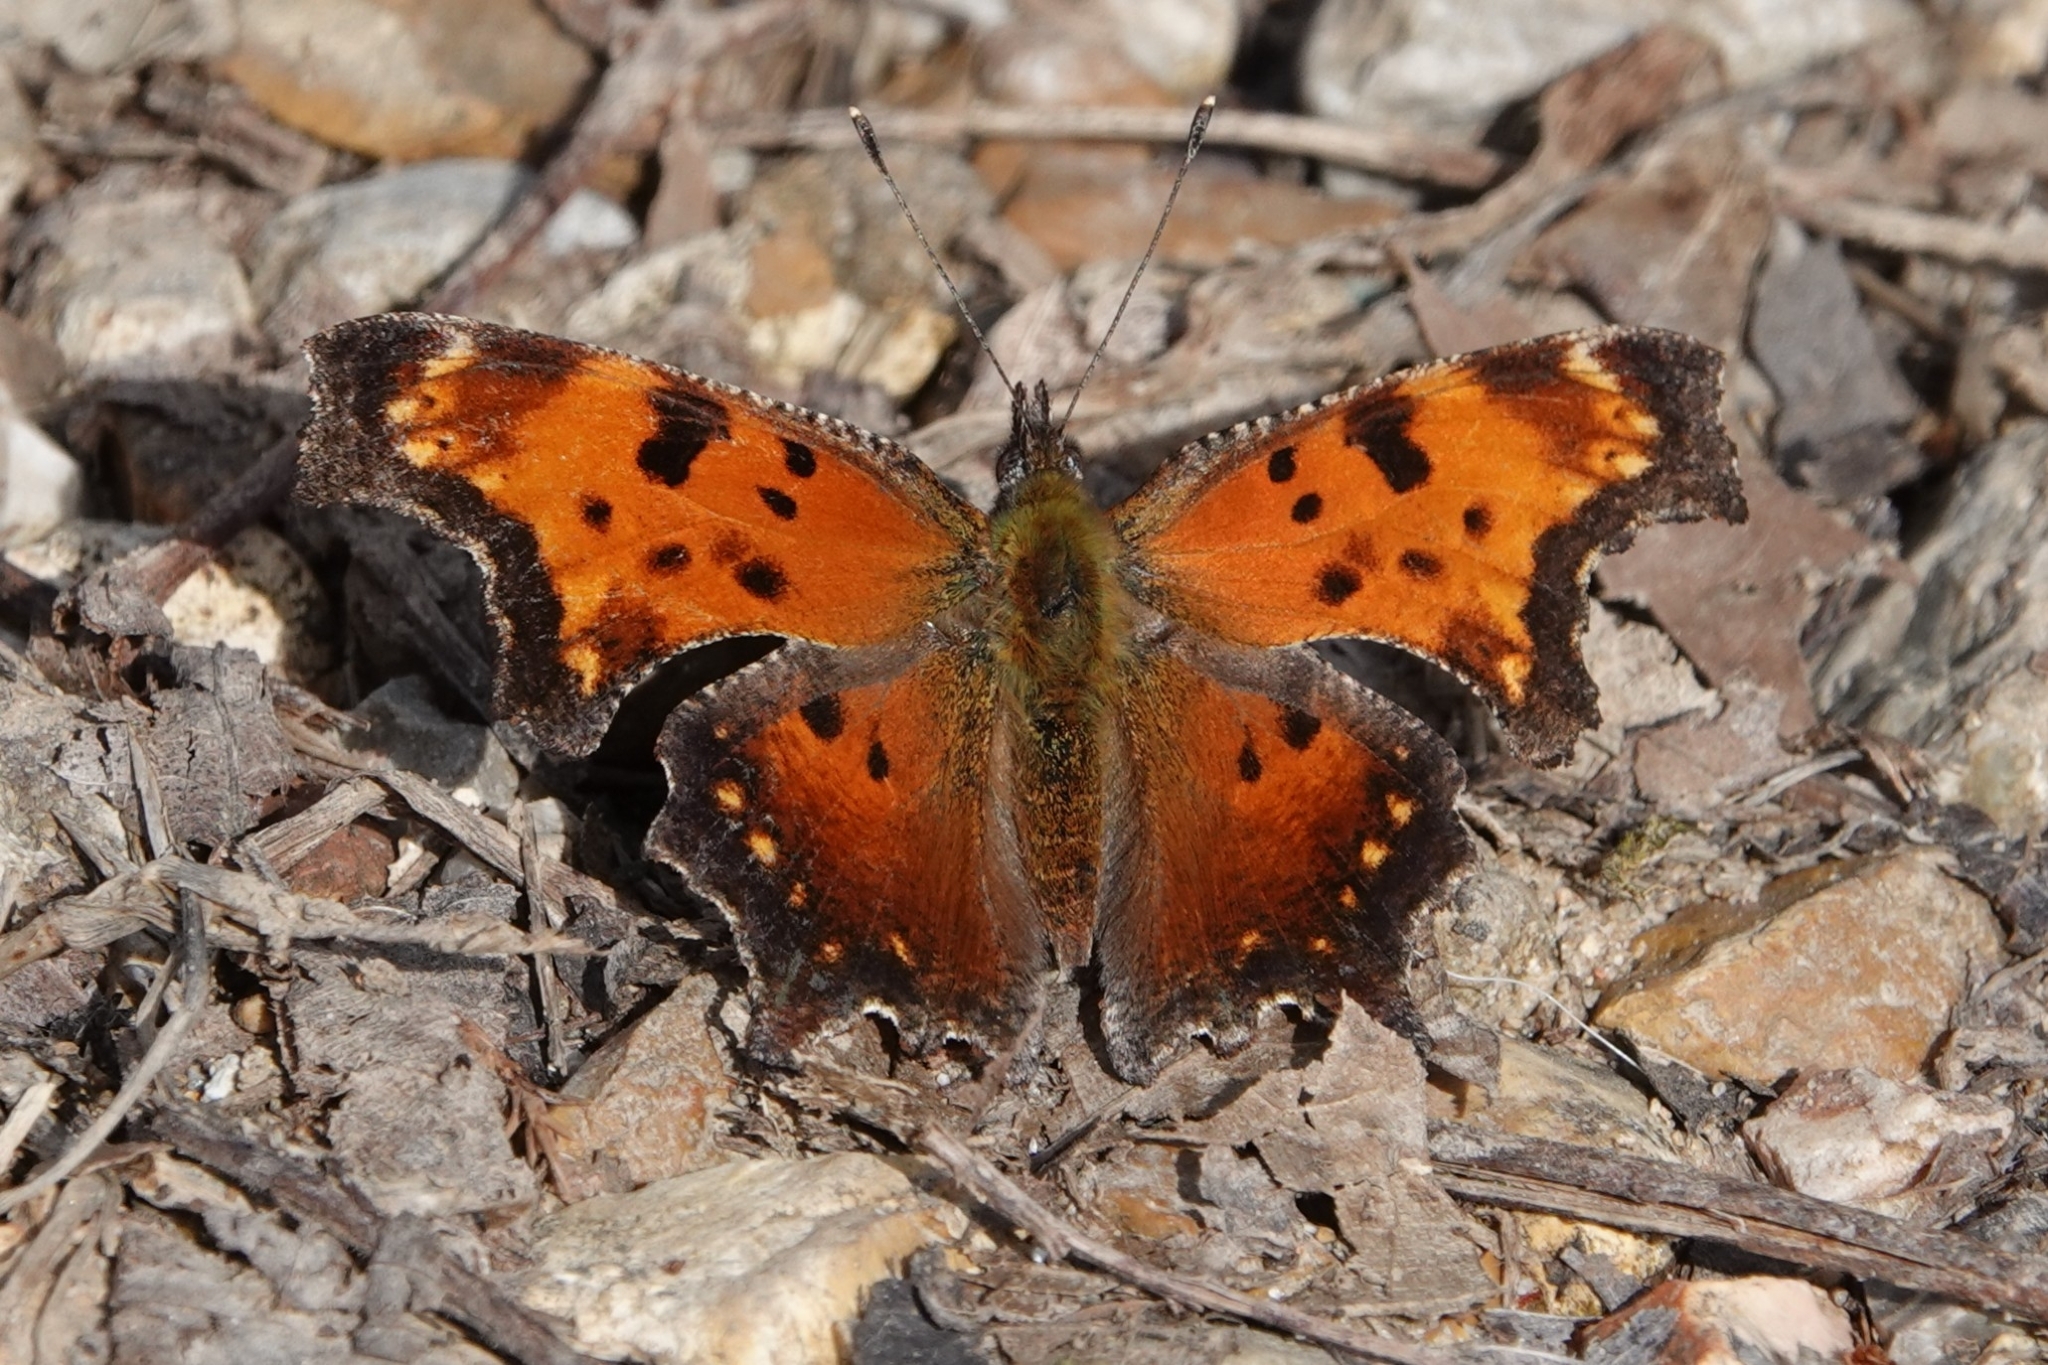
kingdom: Animalia
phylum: Arthropoda
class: Insecta
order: Lepidoptera
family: Nymphalidae
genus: Polygonia
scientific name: Polygonia progne
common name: Gray comma
